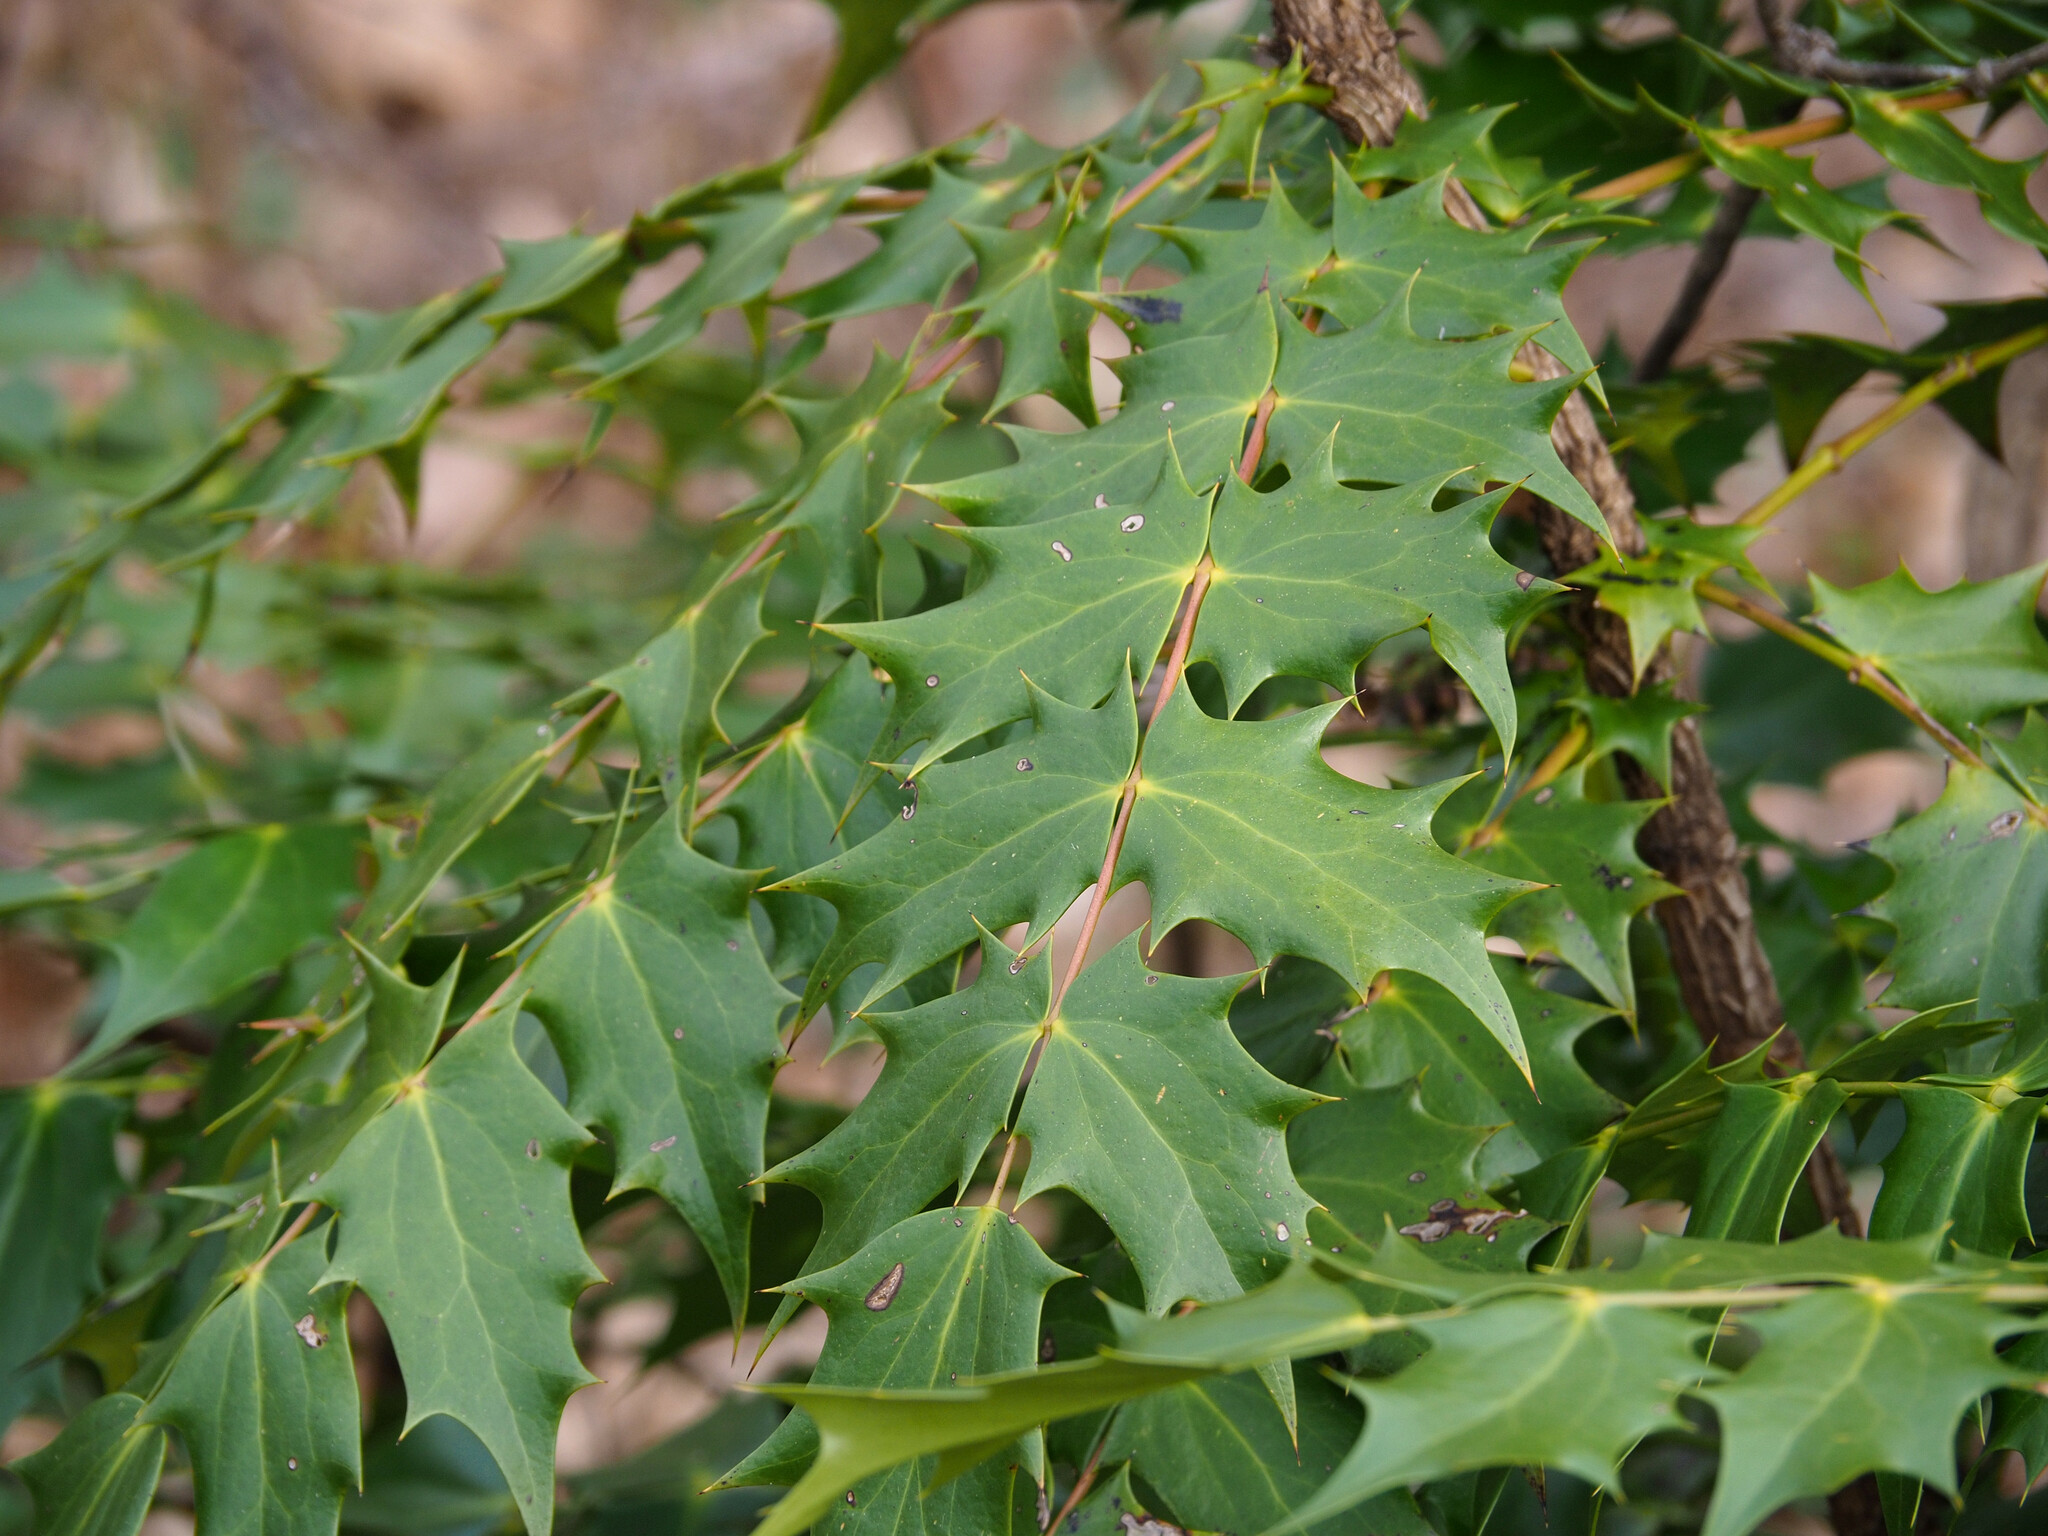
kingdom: Plantae
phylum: Tracheophyta
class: Magnoliopsida
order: Ranunculales
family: Berberidaceae
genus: Mahonia
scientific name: Mahonia bealei
